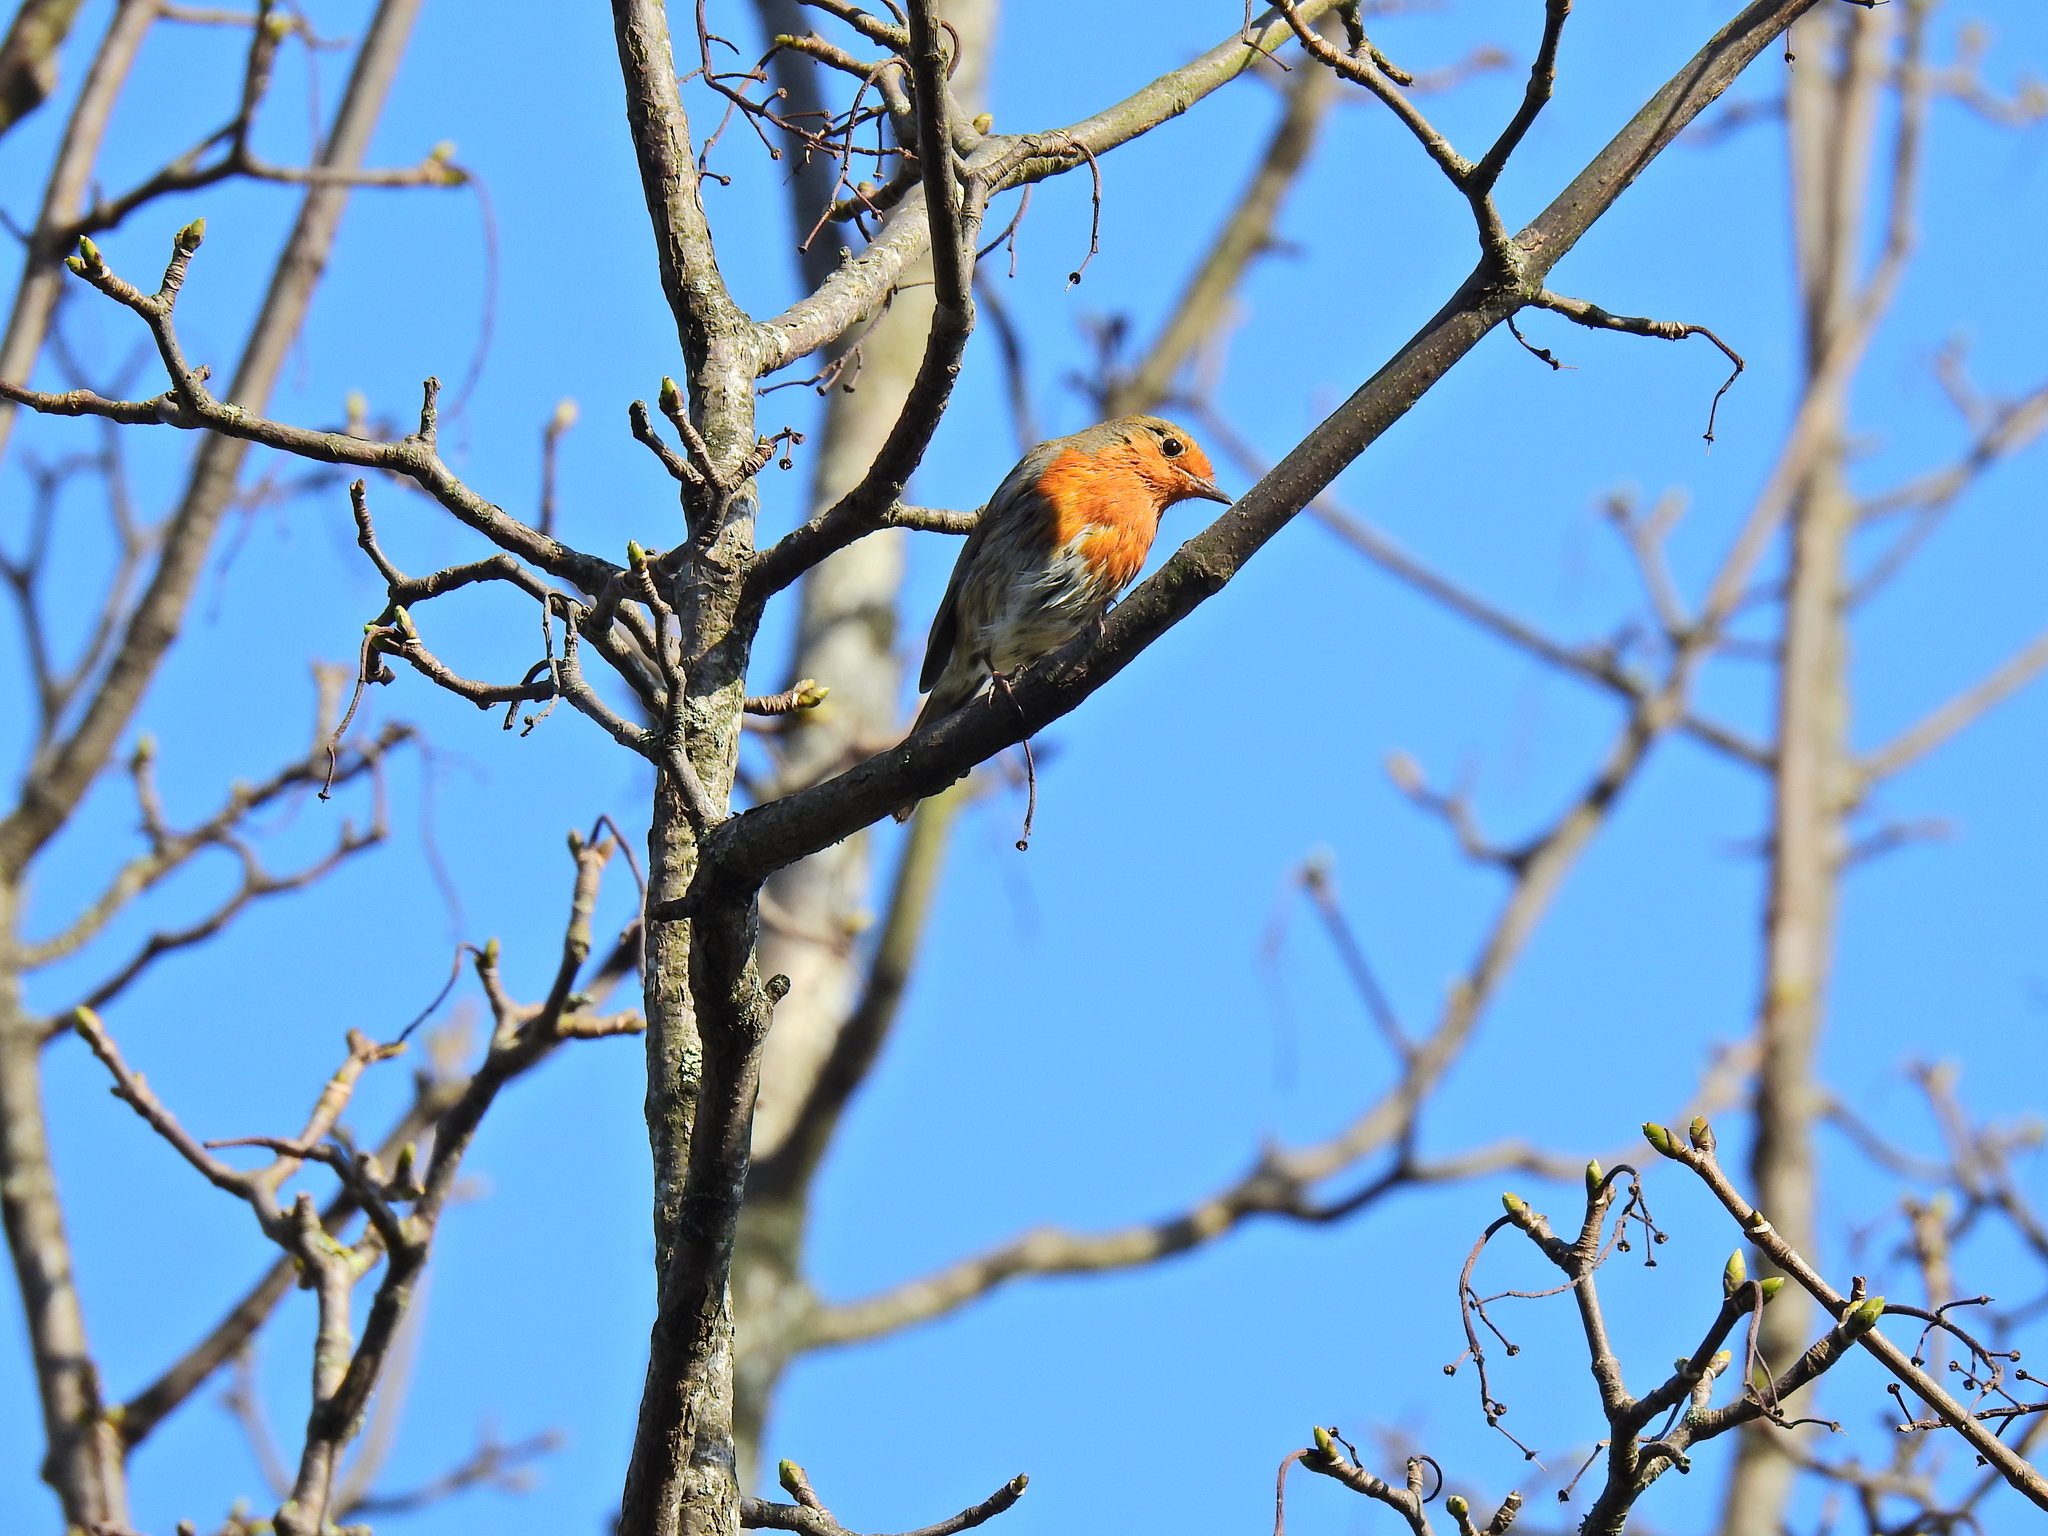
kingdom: Animalia
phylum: Chordata
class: Aves
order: Passeriformes
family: Muscicapidae
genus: Erithacus
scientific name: Erithacus rubecula
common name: European robin
